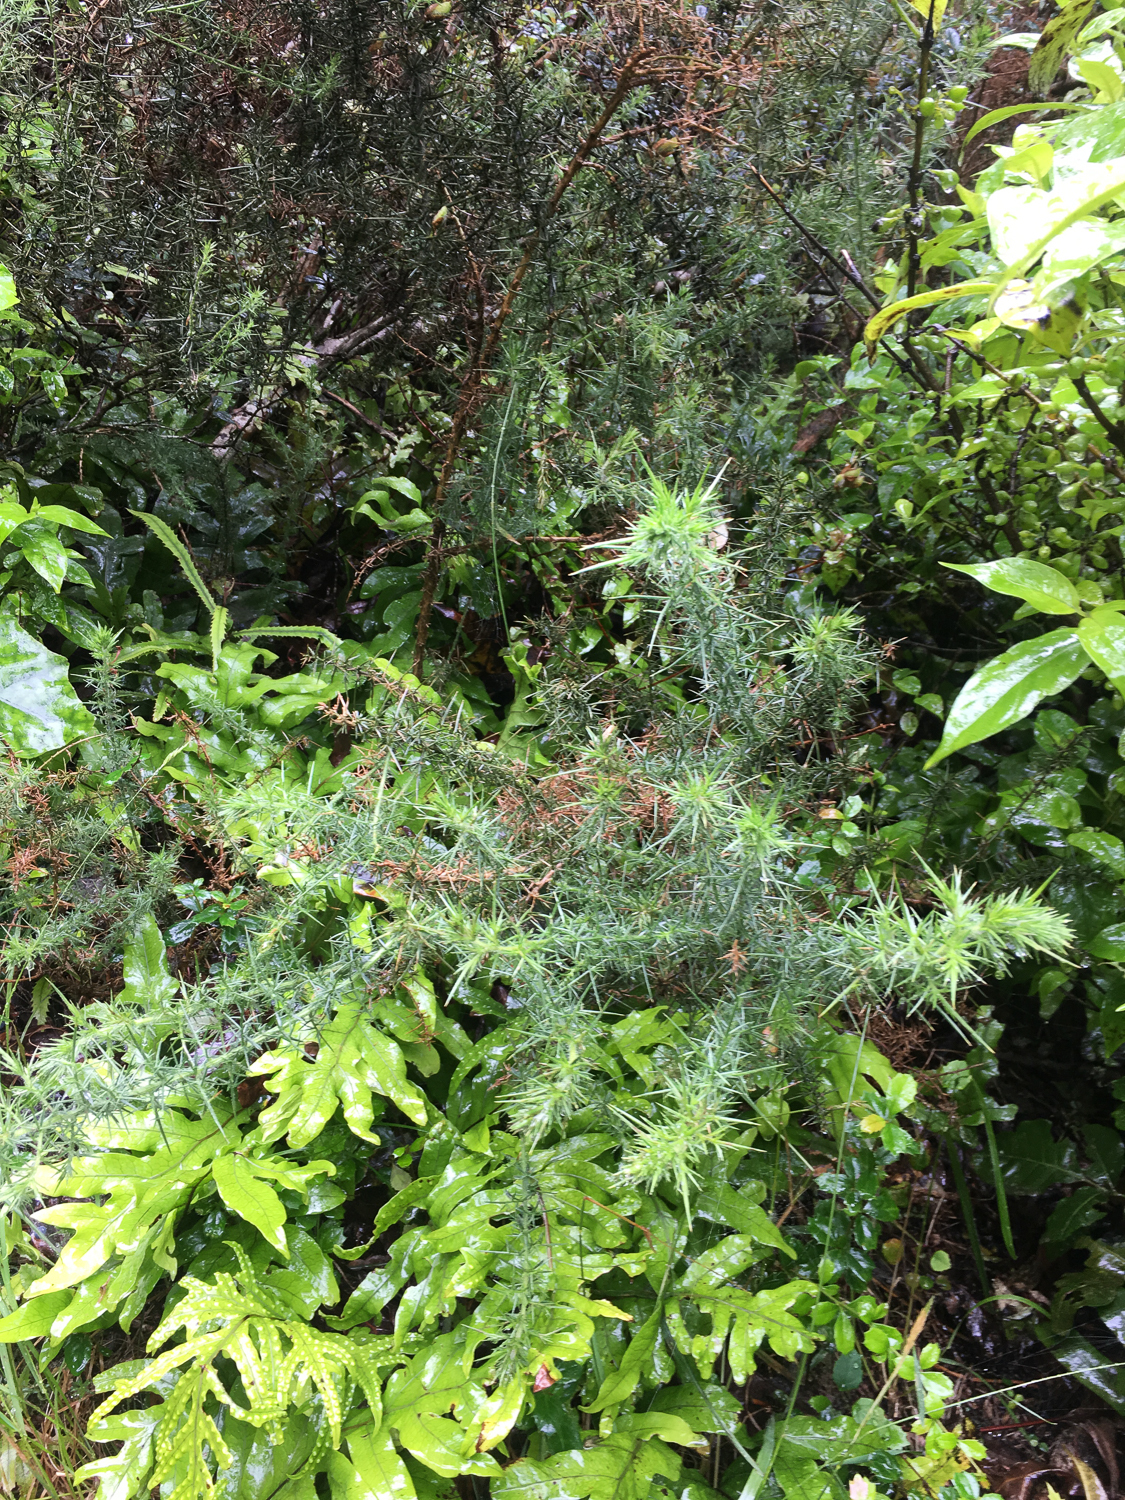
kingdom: Plantae
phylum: Tracheophyta
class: Magnoliopsida
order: Fabales
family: Fabaceae
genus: Ulex
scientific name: Ulex europaeus
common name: Common gorse
